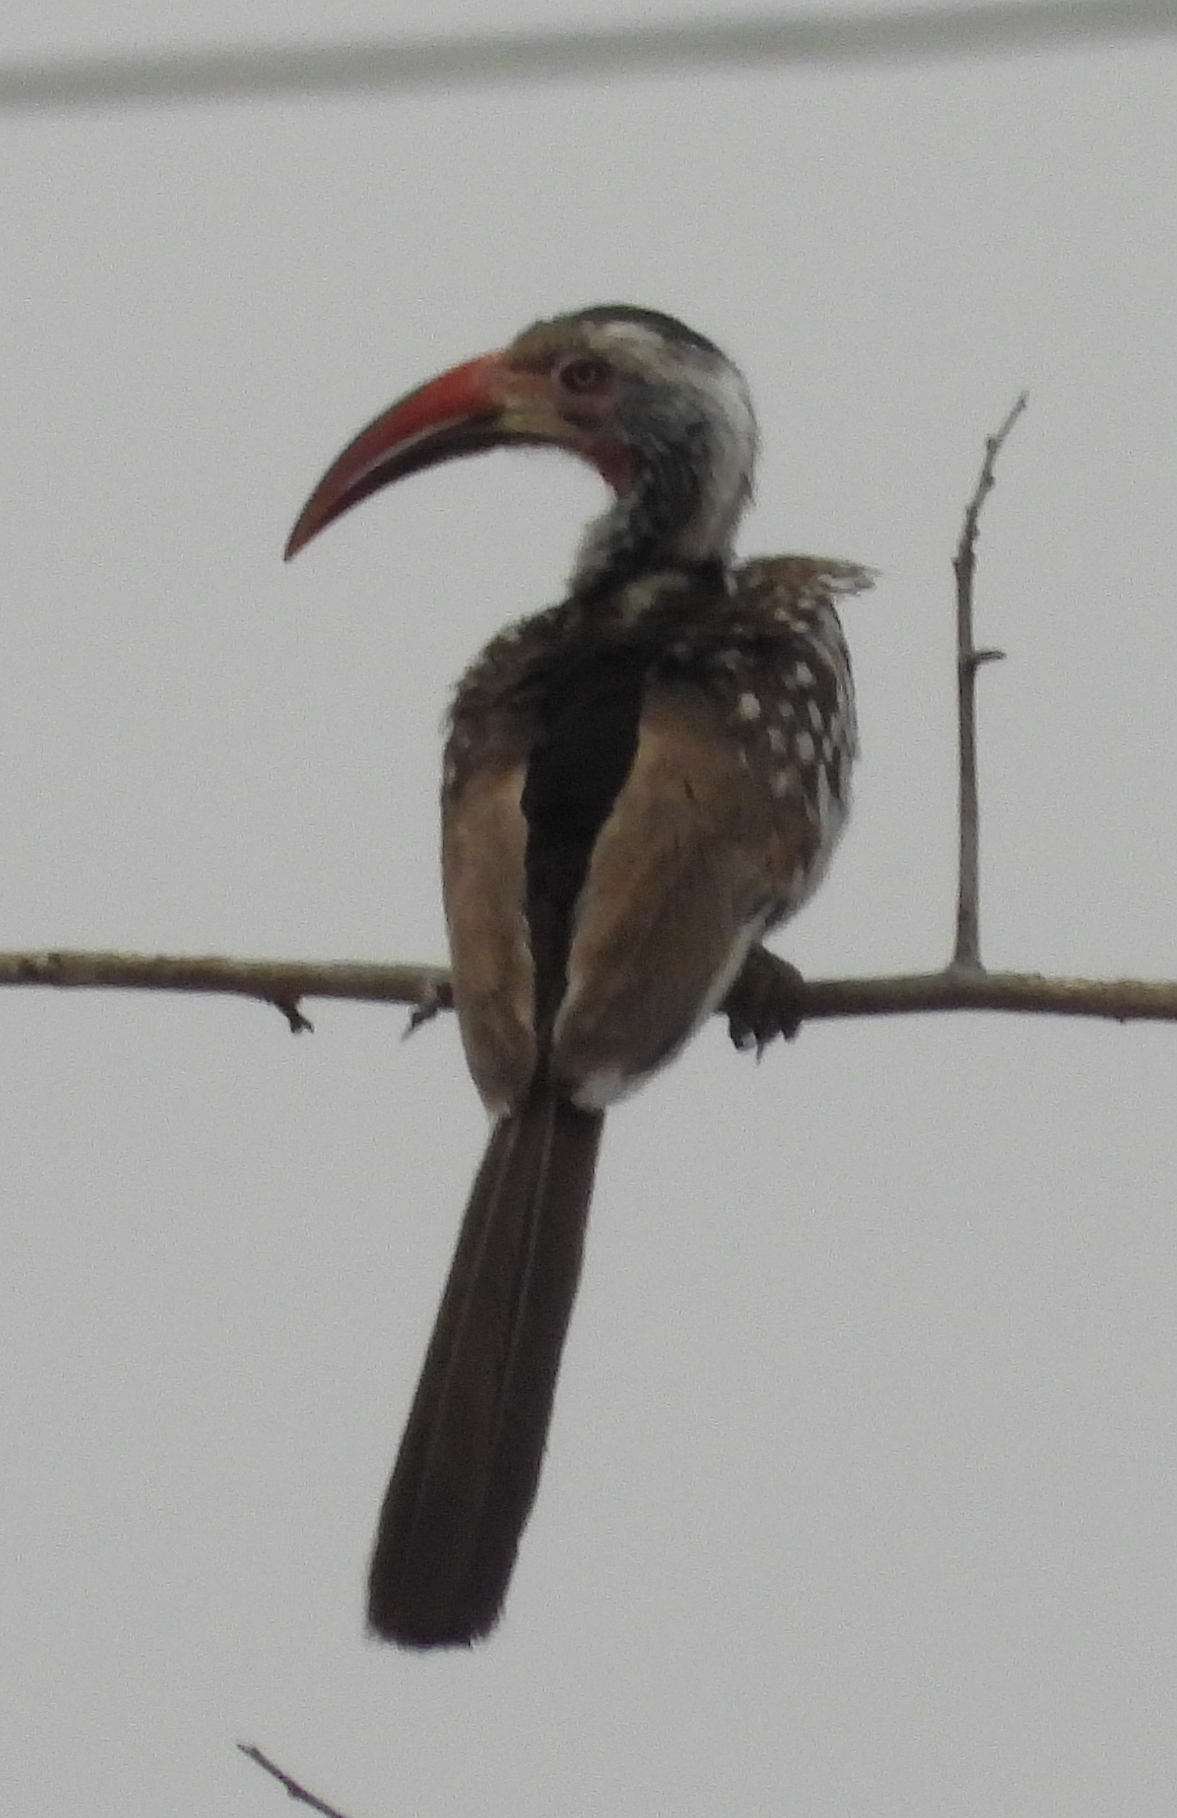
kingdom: Animalia
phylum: Chordata
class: Aves
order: Bucerotiformes
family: Bucerotidae
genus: Tockus
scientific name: Tockus rufirostris
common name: Southern red-billed hornbill
